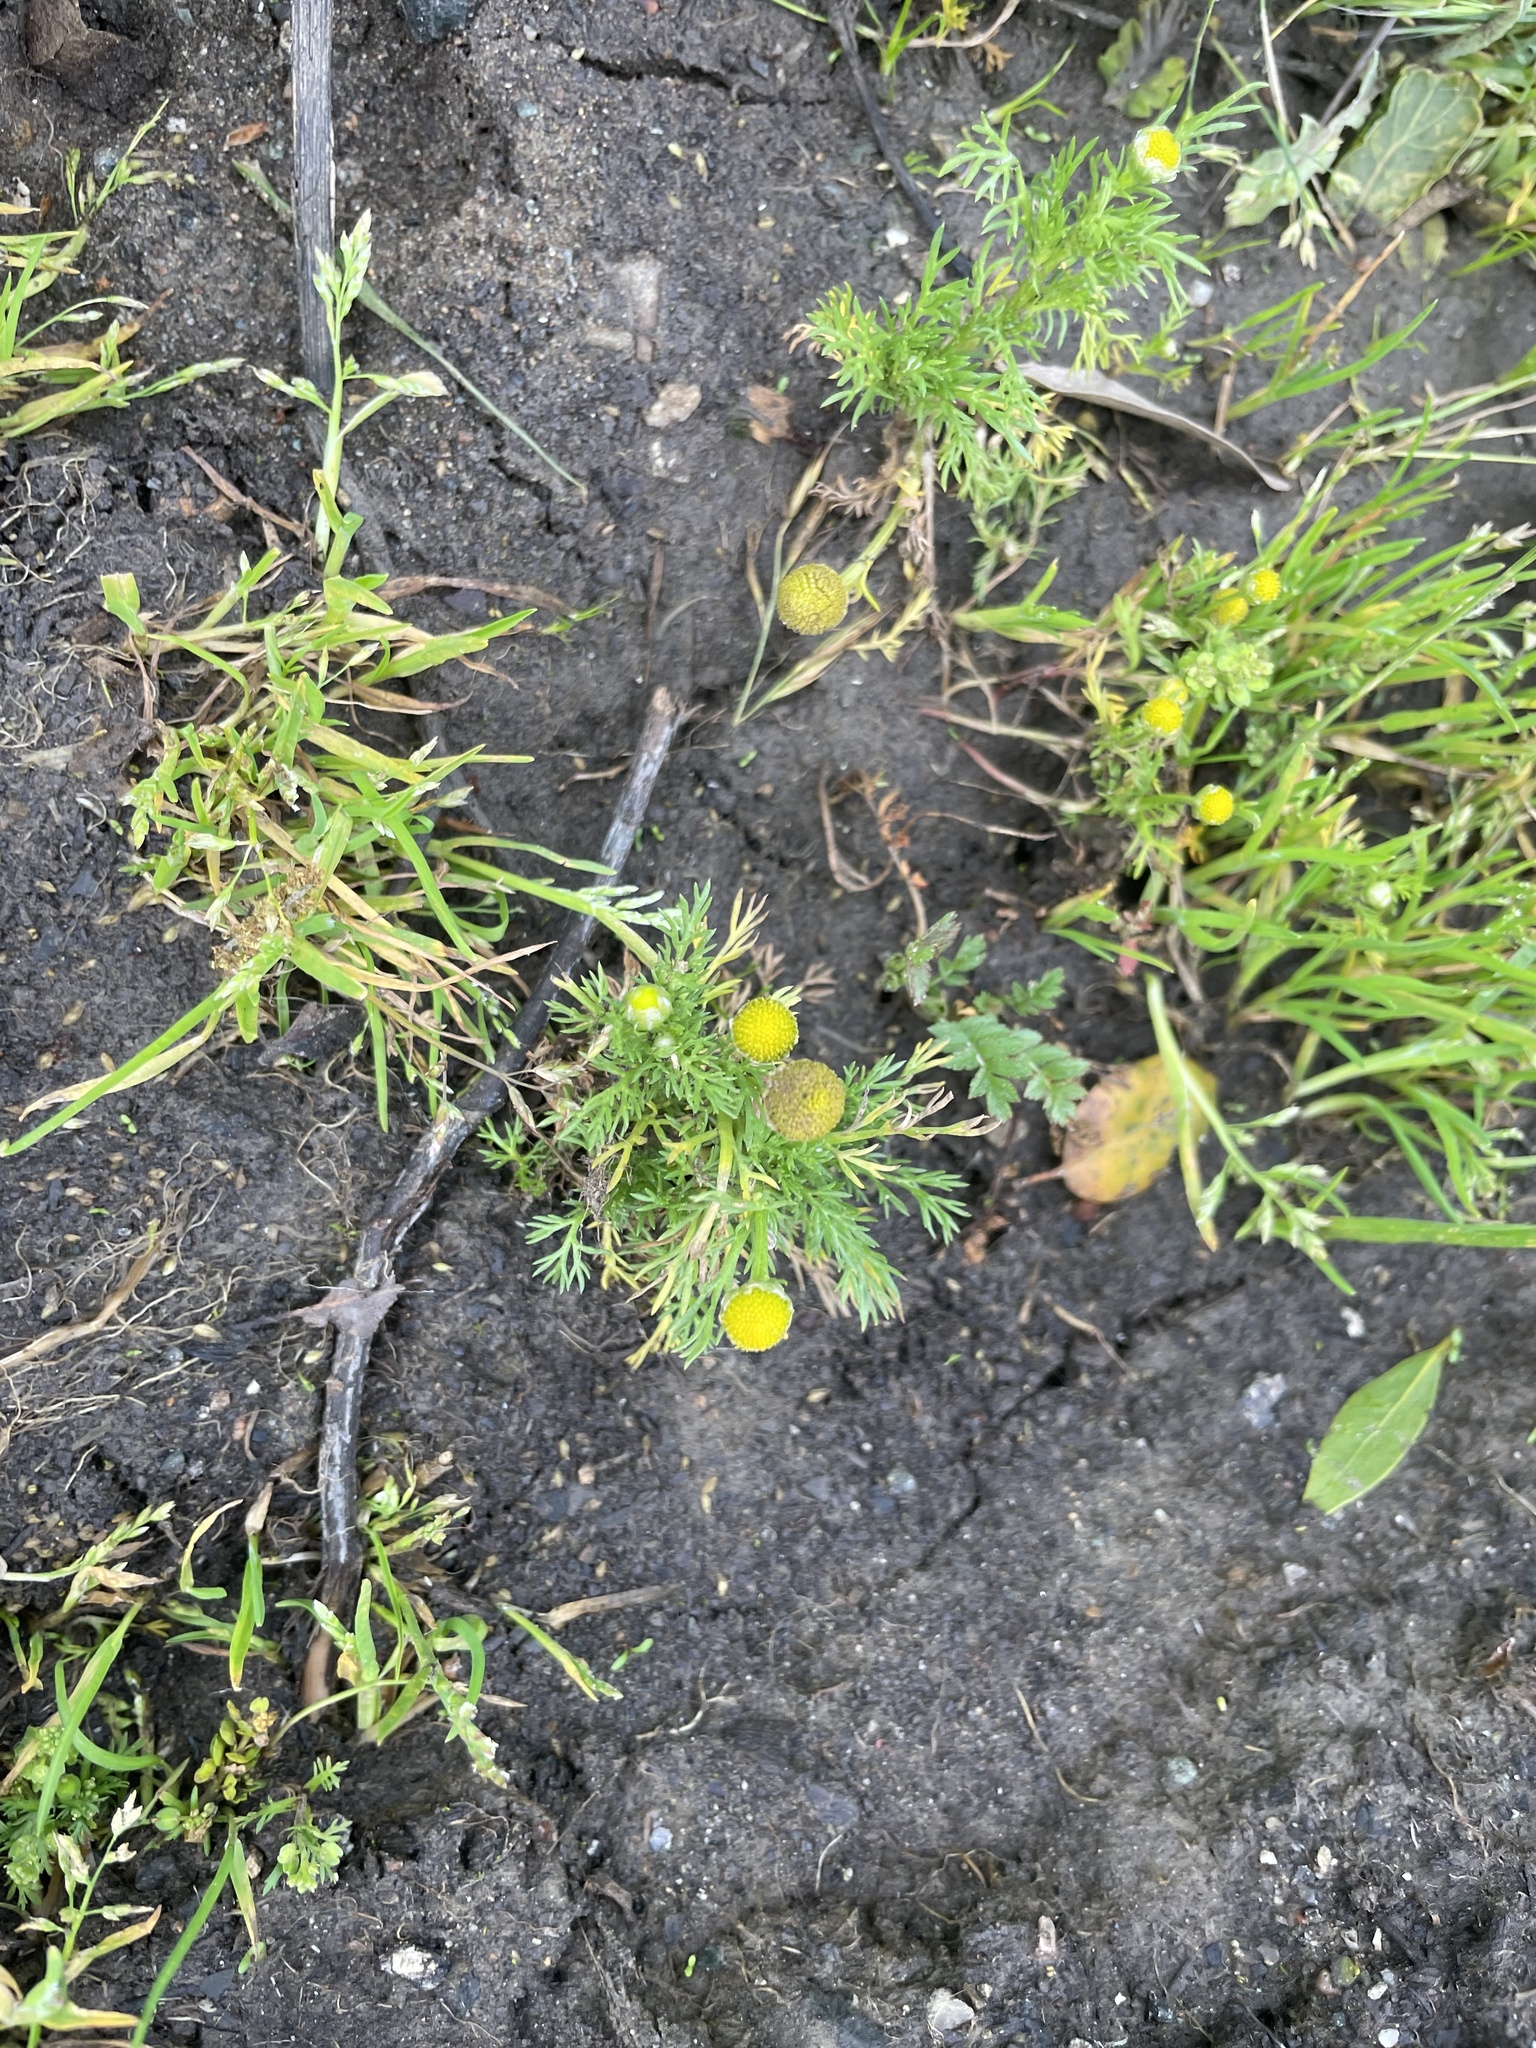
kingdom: Plantae
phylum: Tracheophyta
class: Magnoliopsida
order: Asterales
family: Asteraceae
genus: Matricaria
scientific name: Matricaria discoidea
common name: Disc mayweed
